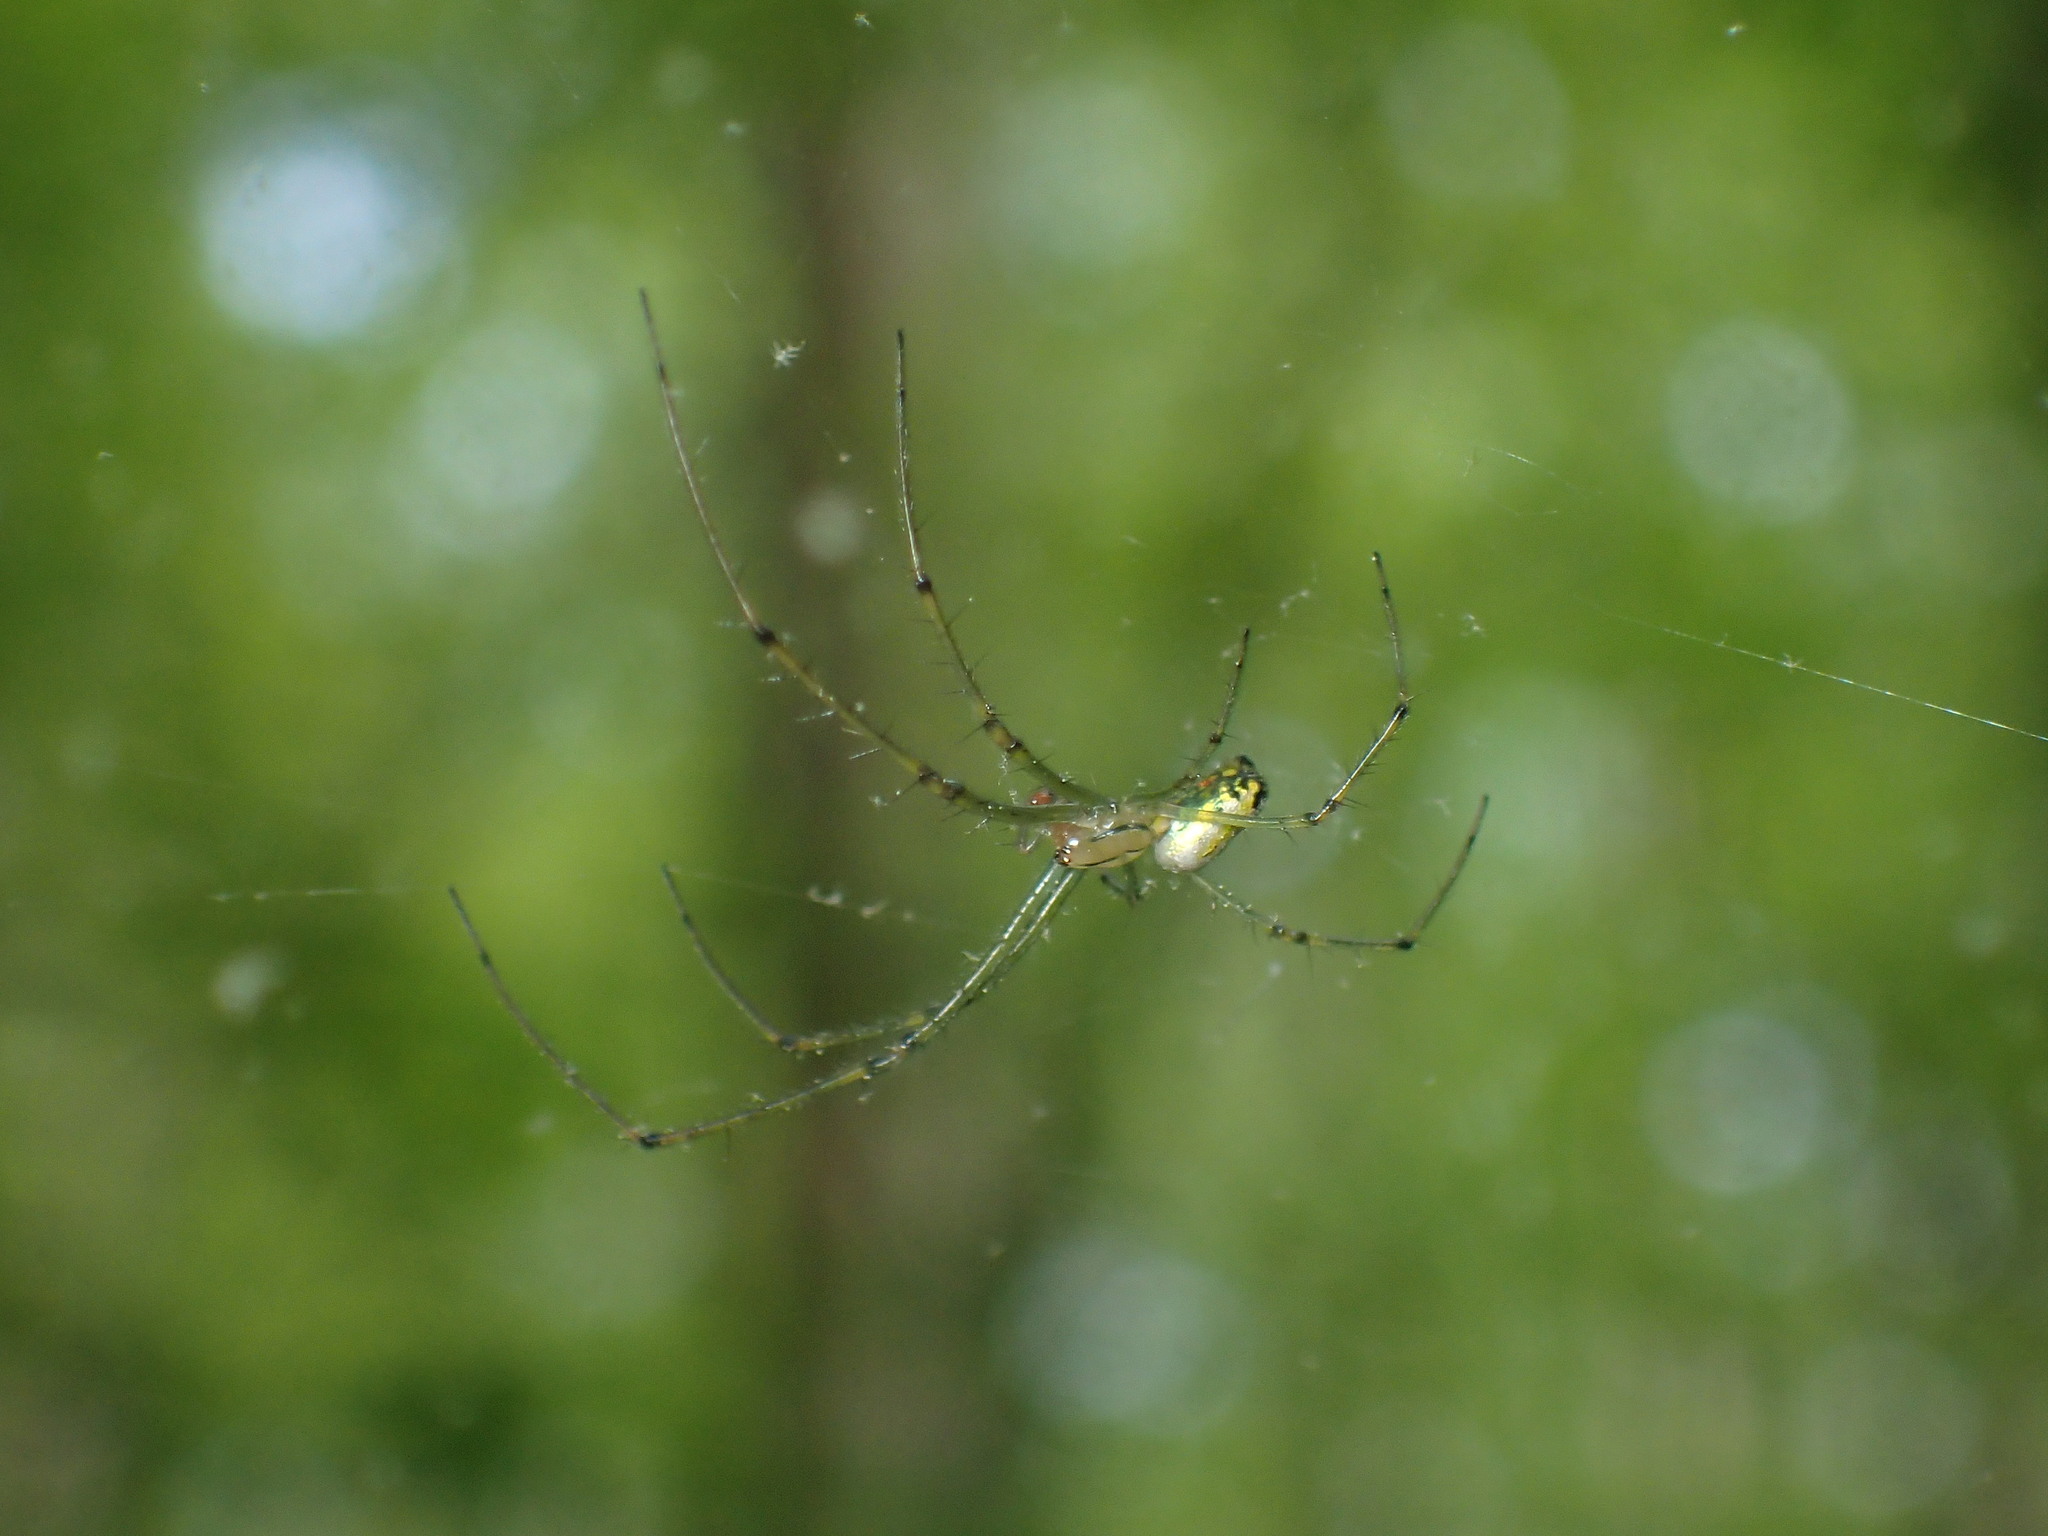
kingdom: Animalia
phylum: Arthropoda
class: Arachnida
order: Araneae
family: Tetragnathidae
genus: Leucauge
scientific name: Leucauge venusta
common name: Longjawed orb weavers
